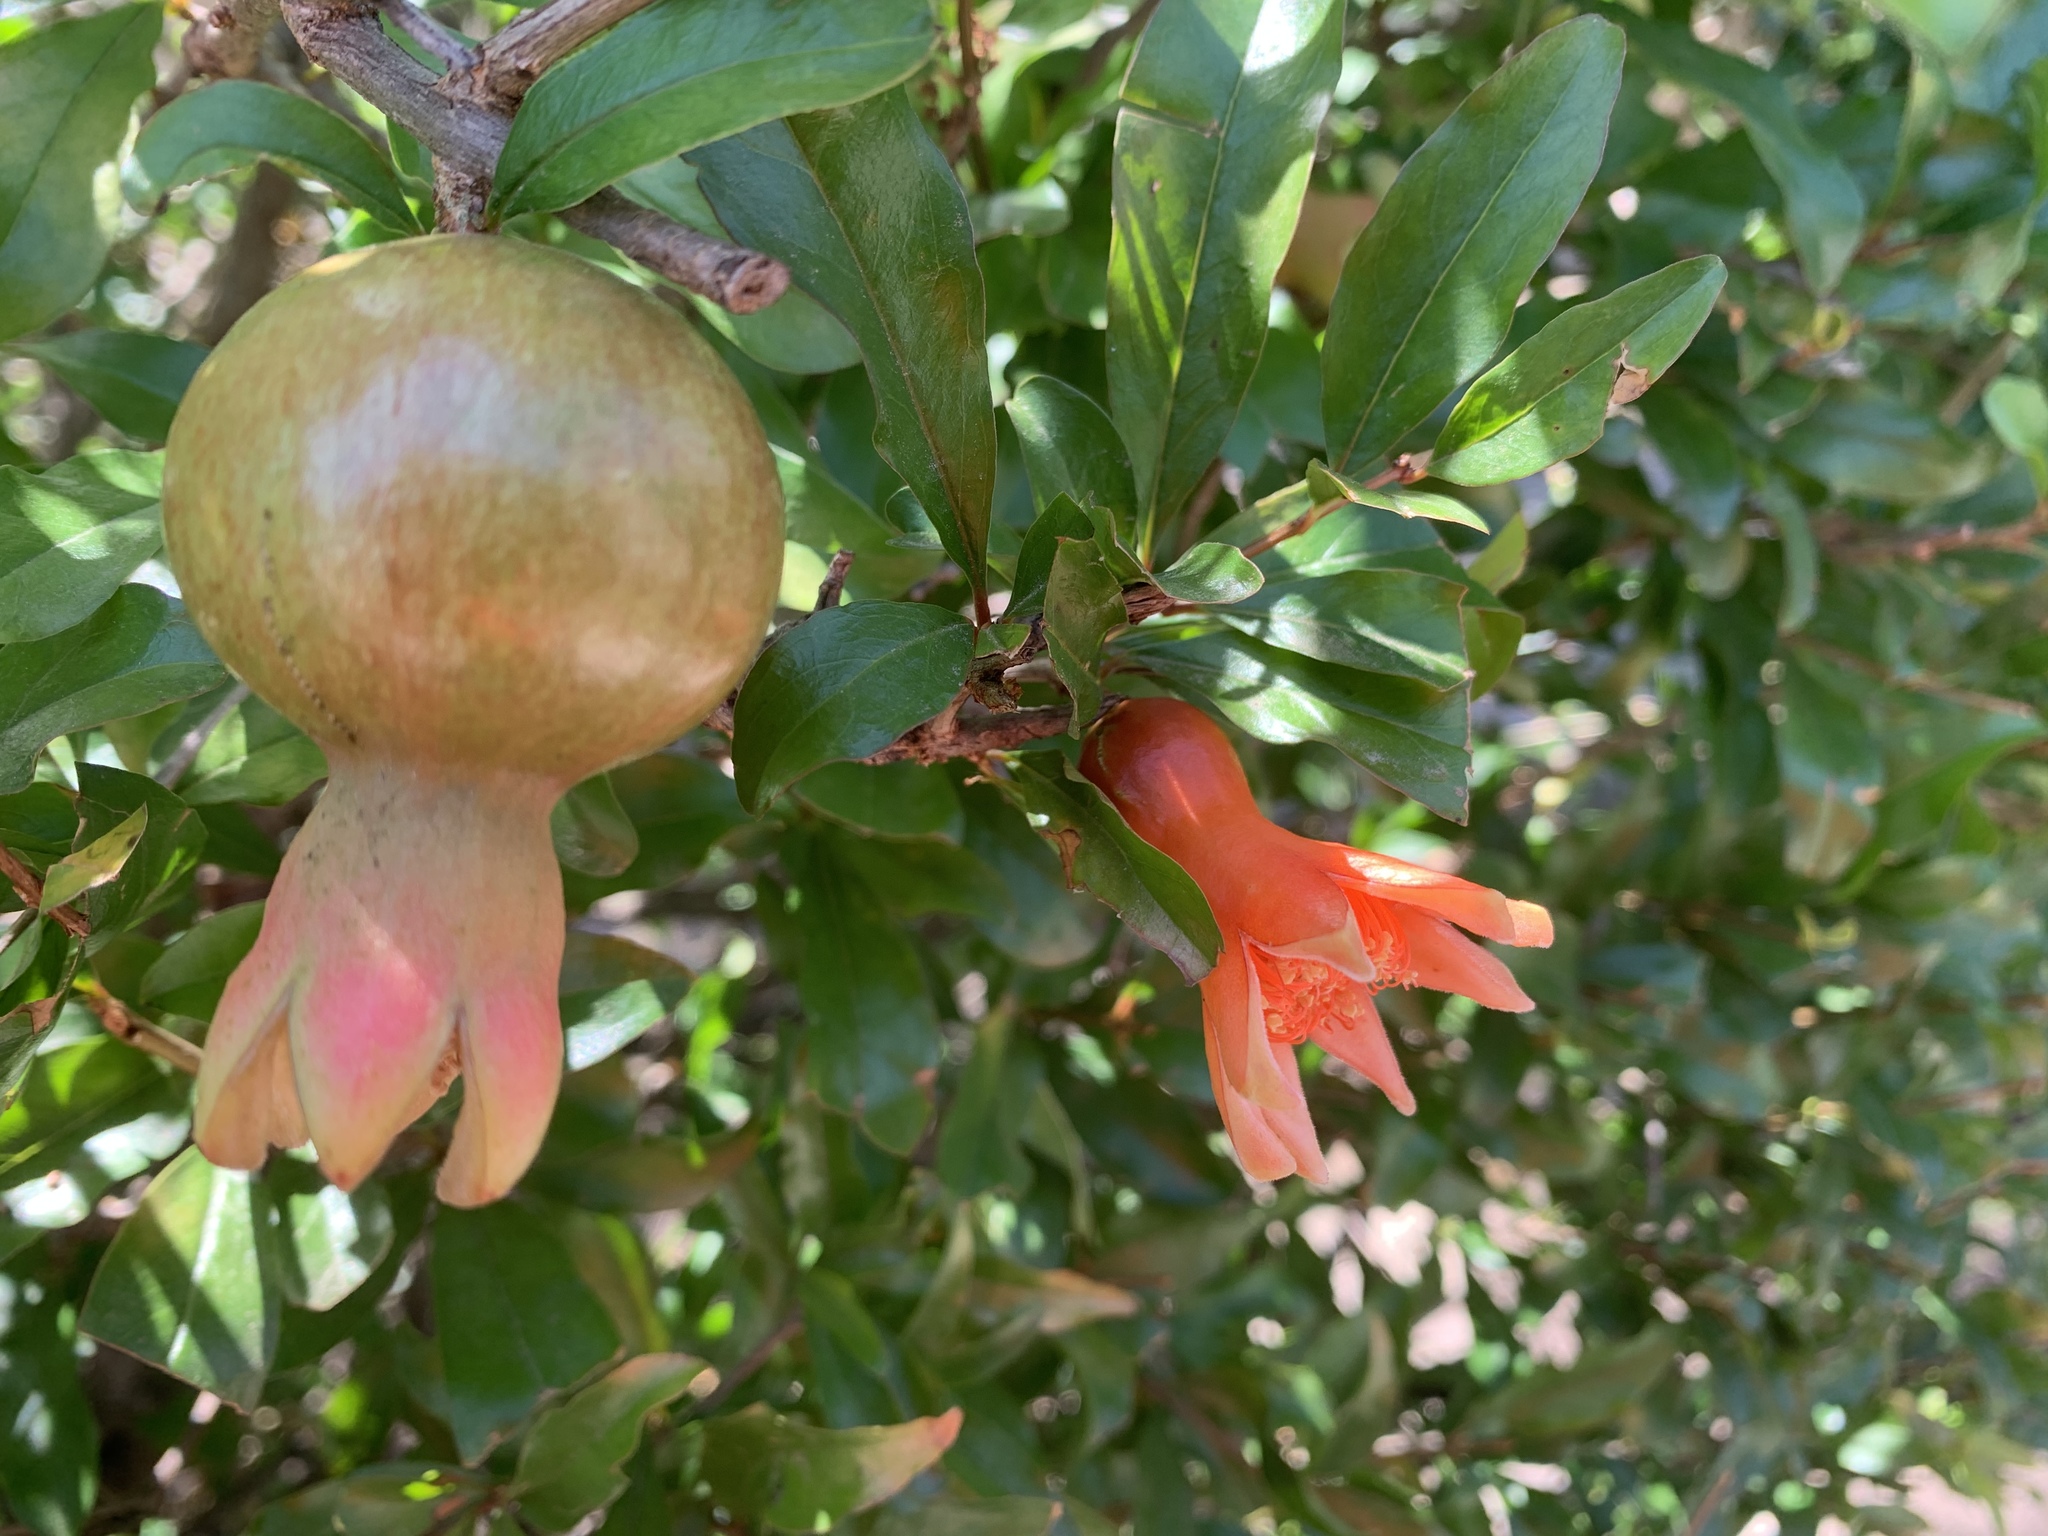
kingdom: Plantae
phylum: Tracheophyta
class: Magnoliopsida
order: Myrtales
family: Lythraceae
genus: Punica
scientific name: Punica granatum
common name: Pomegranate
